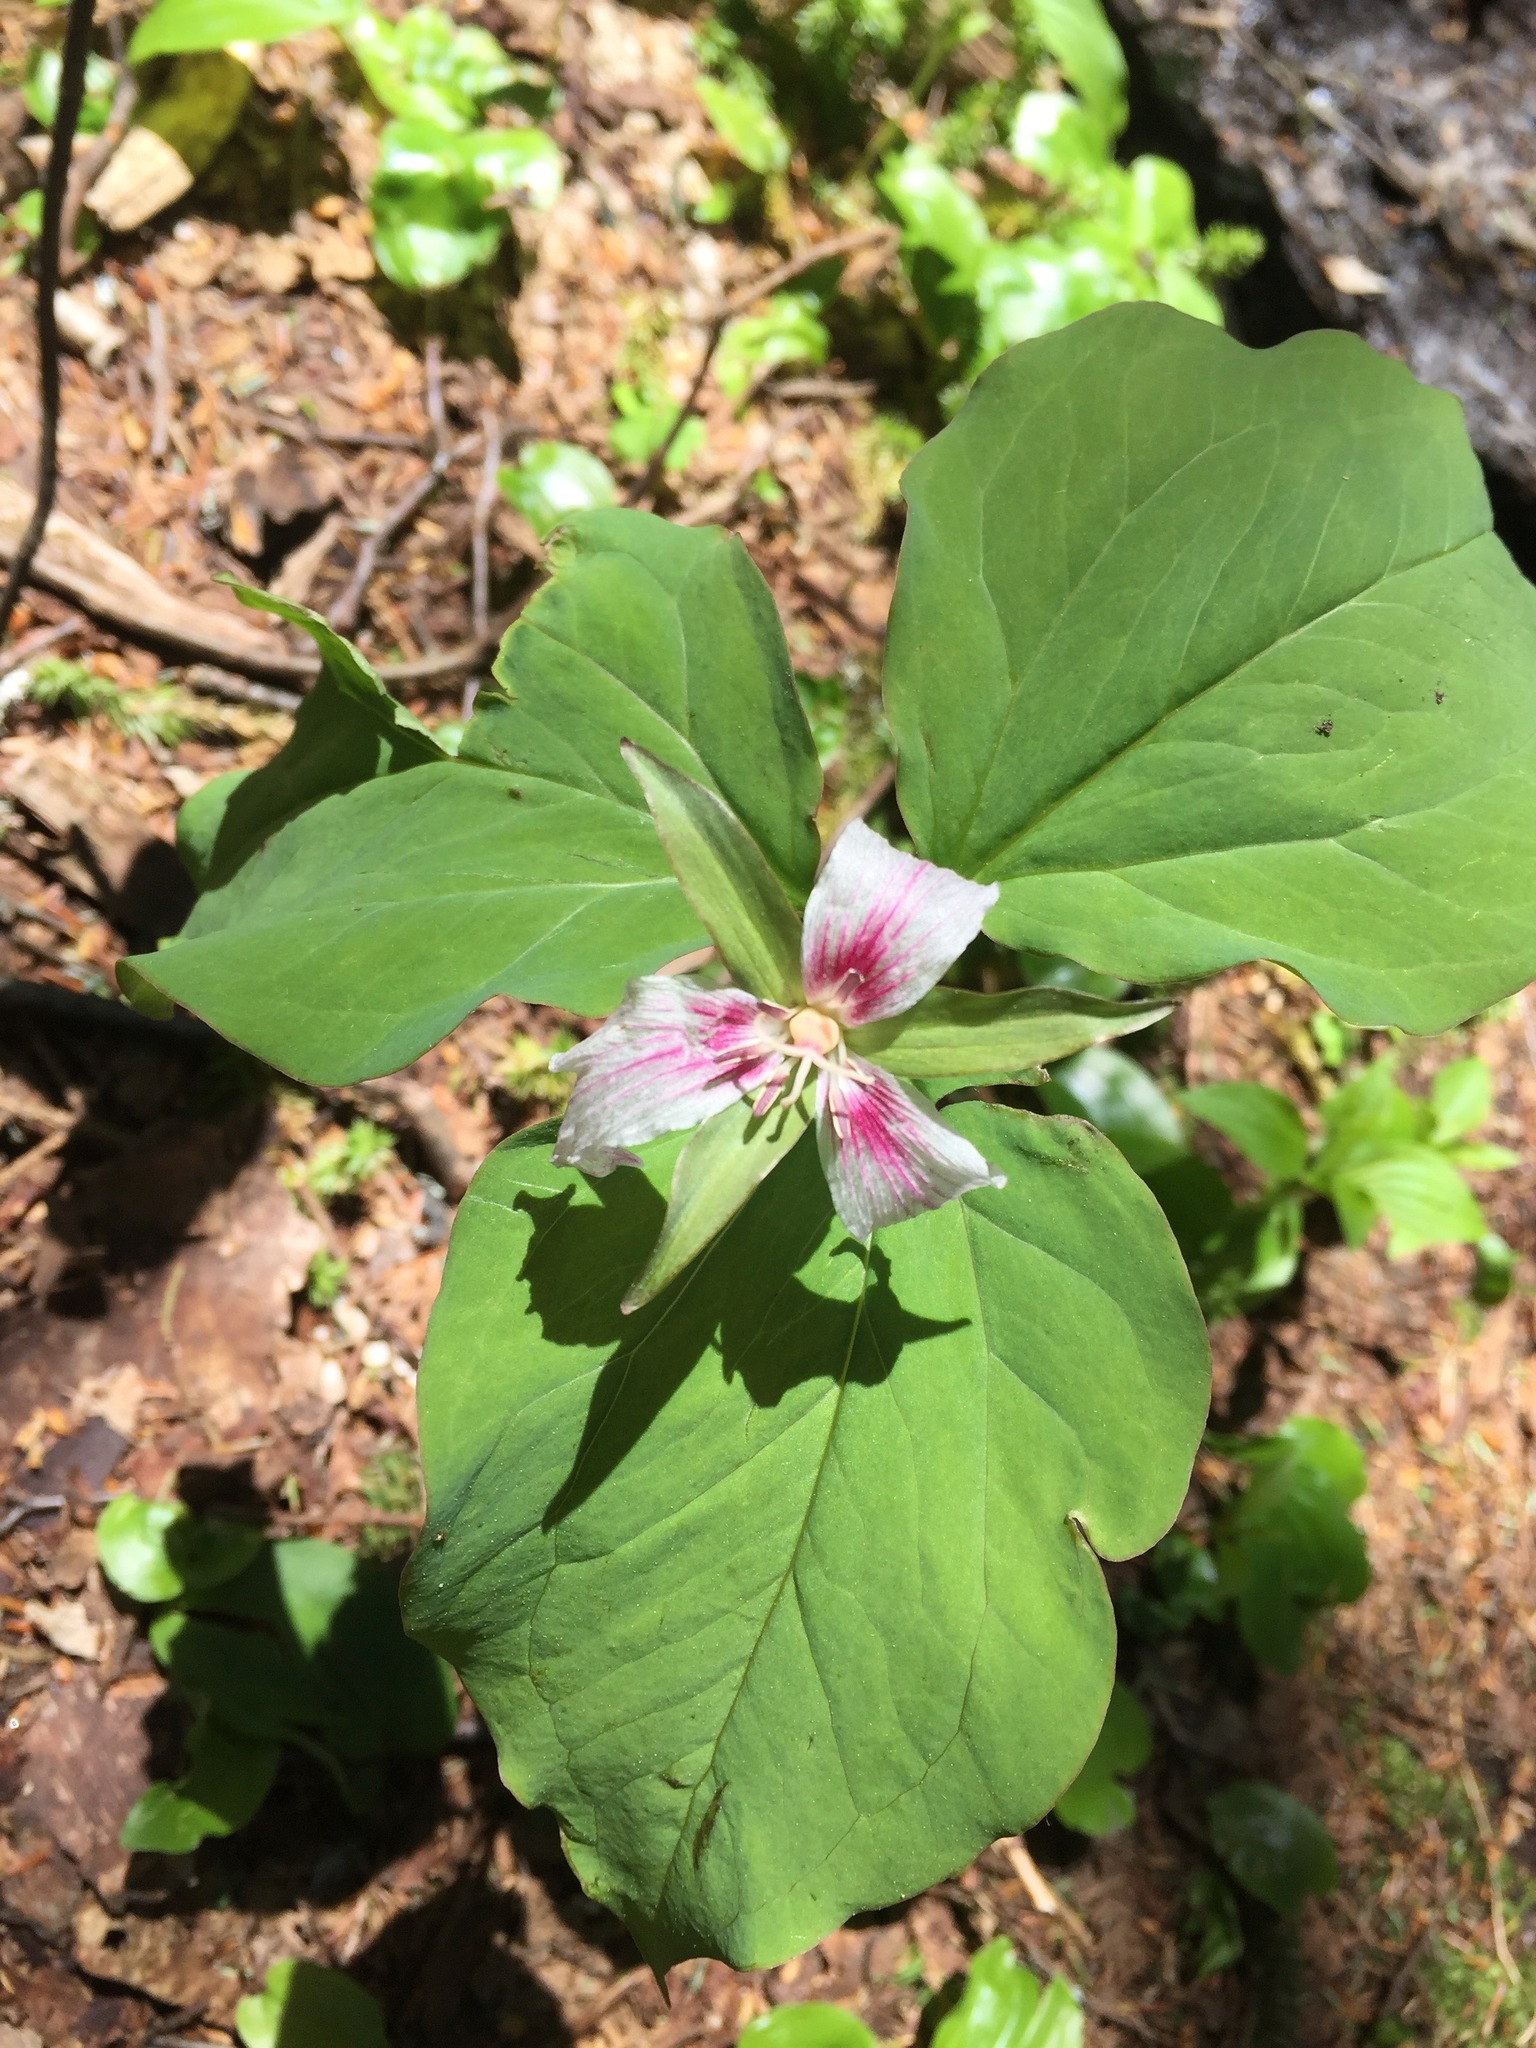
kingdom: Plantae
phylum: Tracheophyta
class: Liliopsida
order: Liliales
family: Melanthiaceae
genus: Trillium
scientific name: Trillium undulatum
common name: Paint trillium
